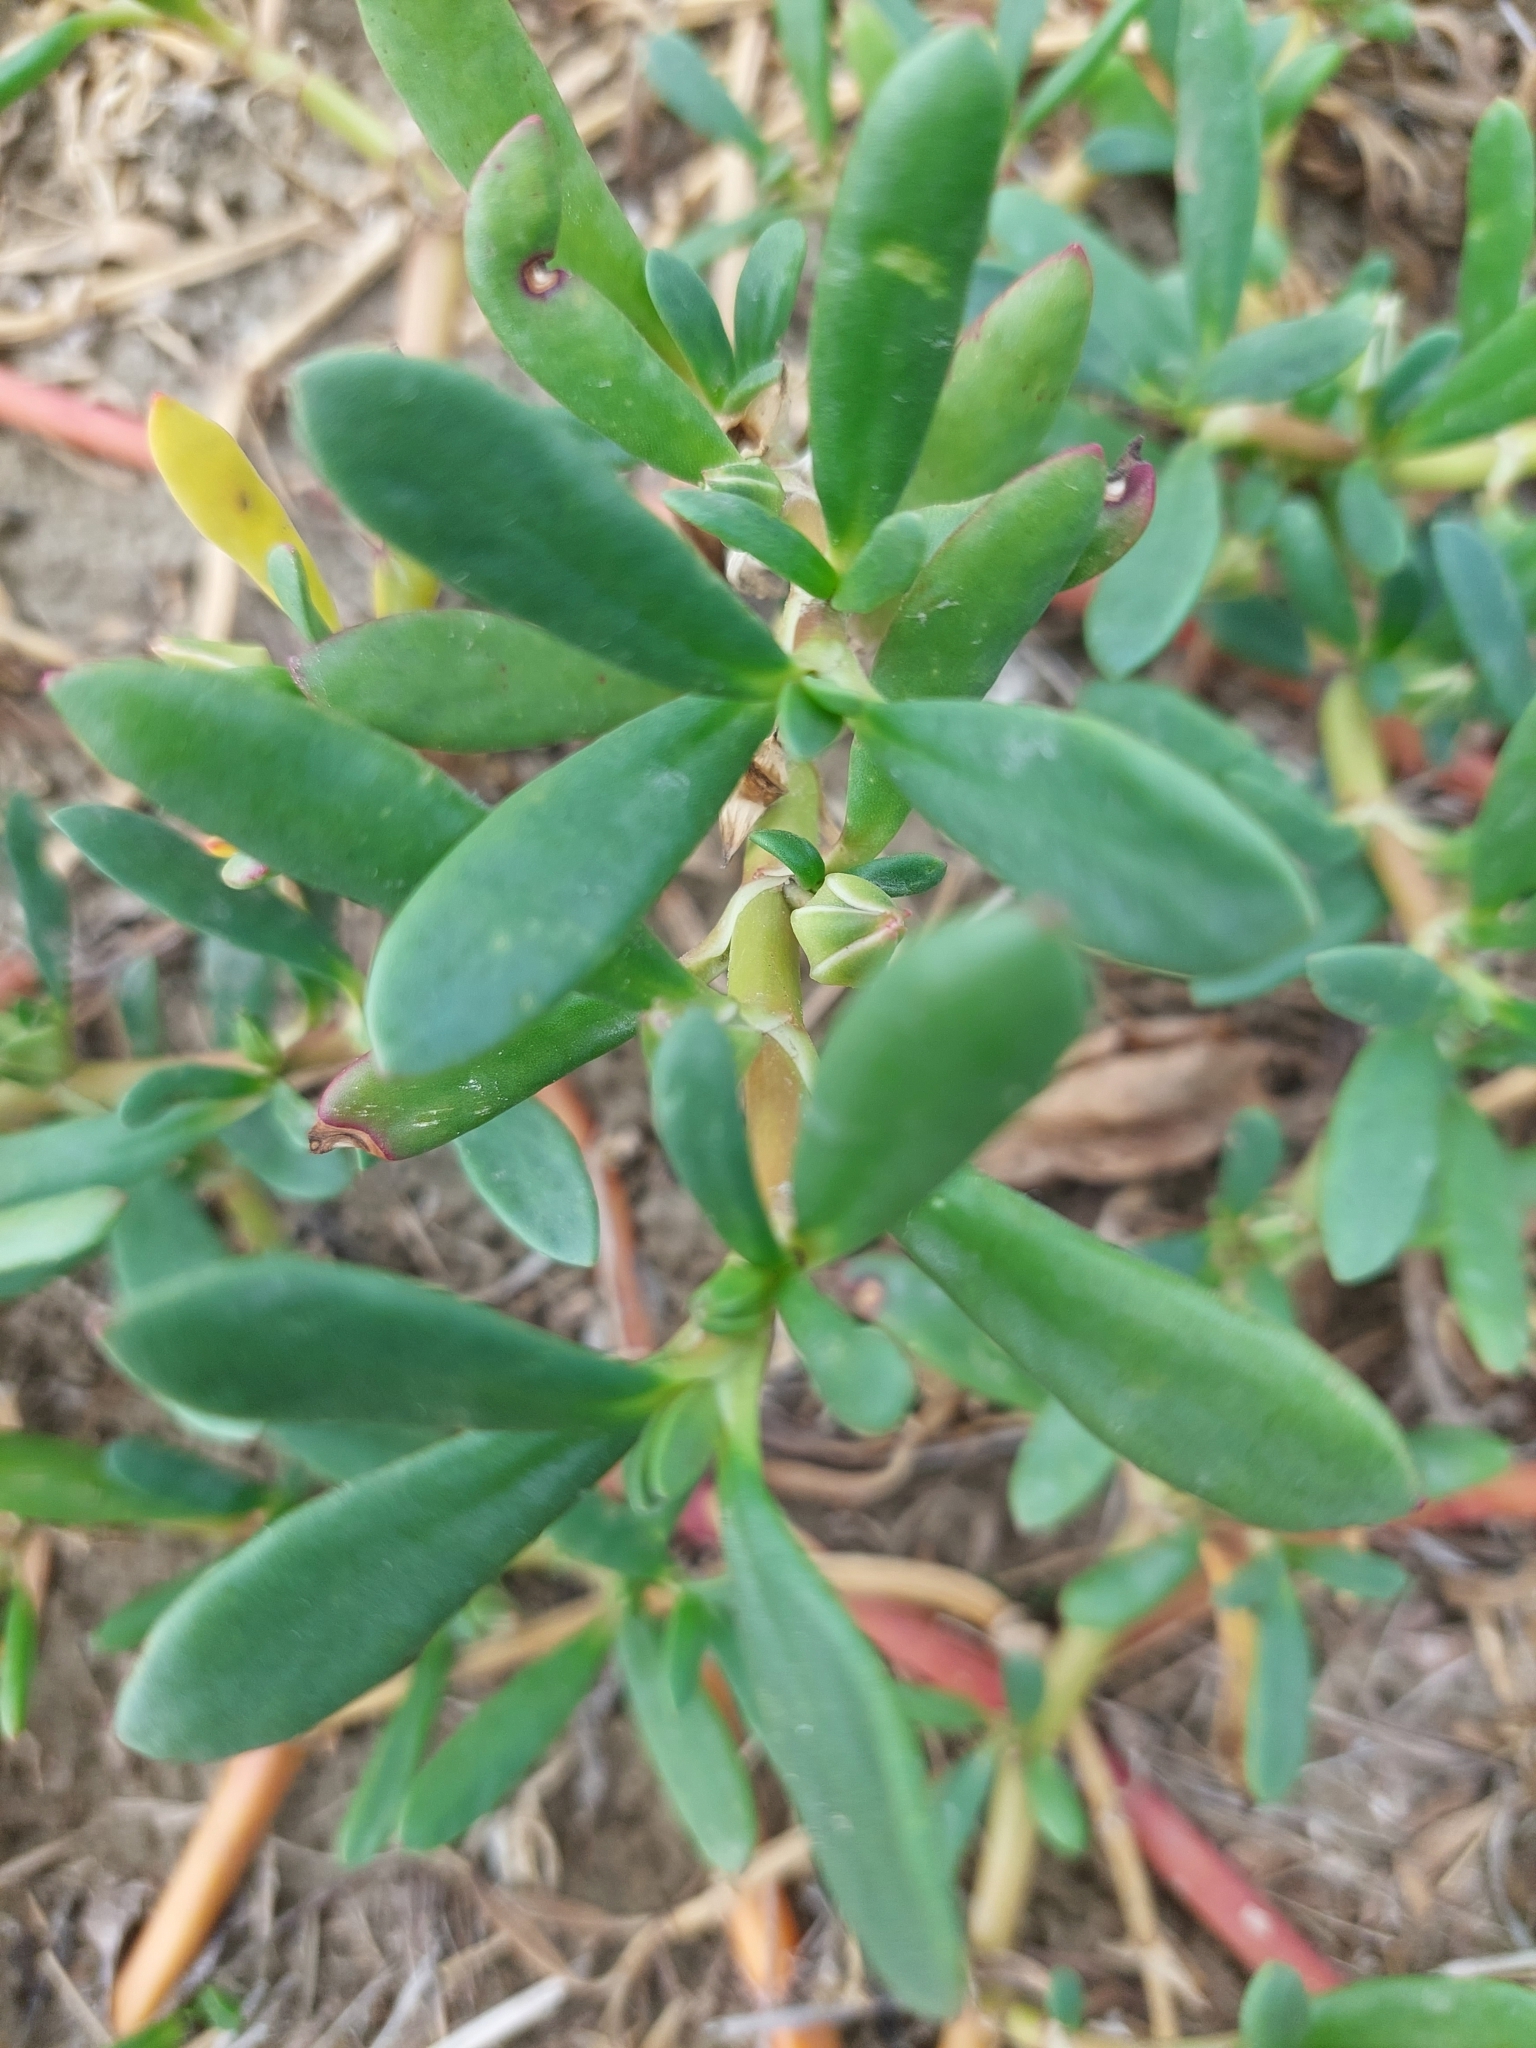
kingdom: Plantae
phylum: Tracheophyta
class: Magnoliopsida
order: Caryophyllales
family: Aizoaceae
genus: Sesuvium
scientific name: Sesuvium portulacastrum
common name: Sea-purslane
